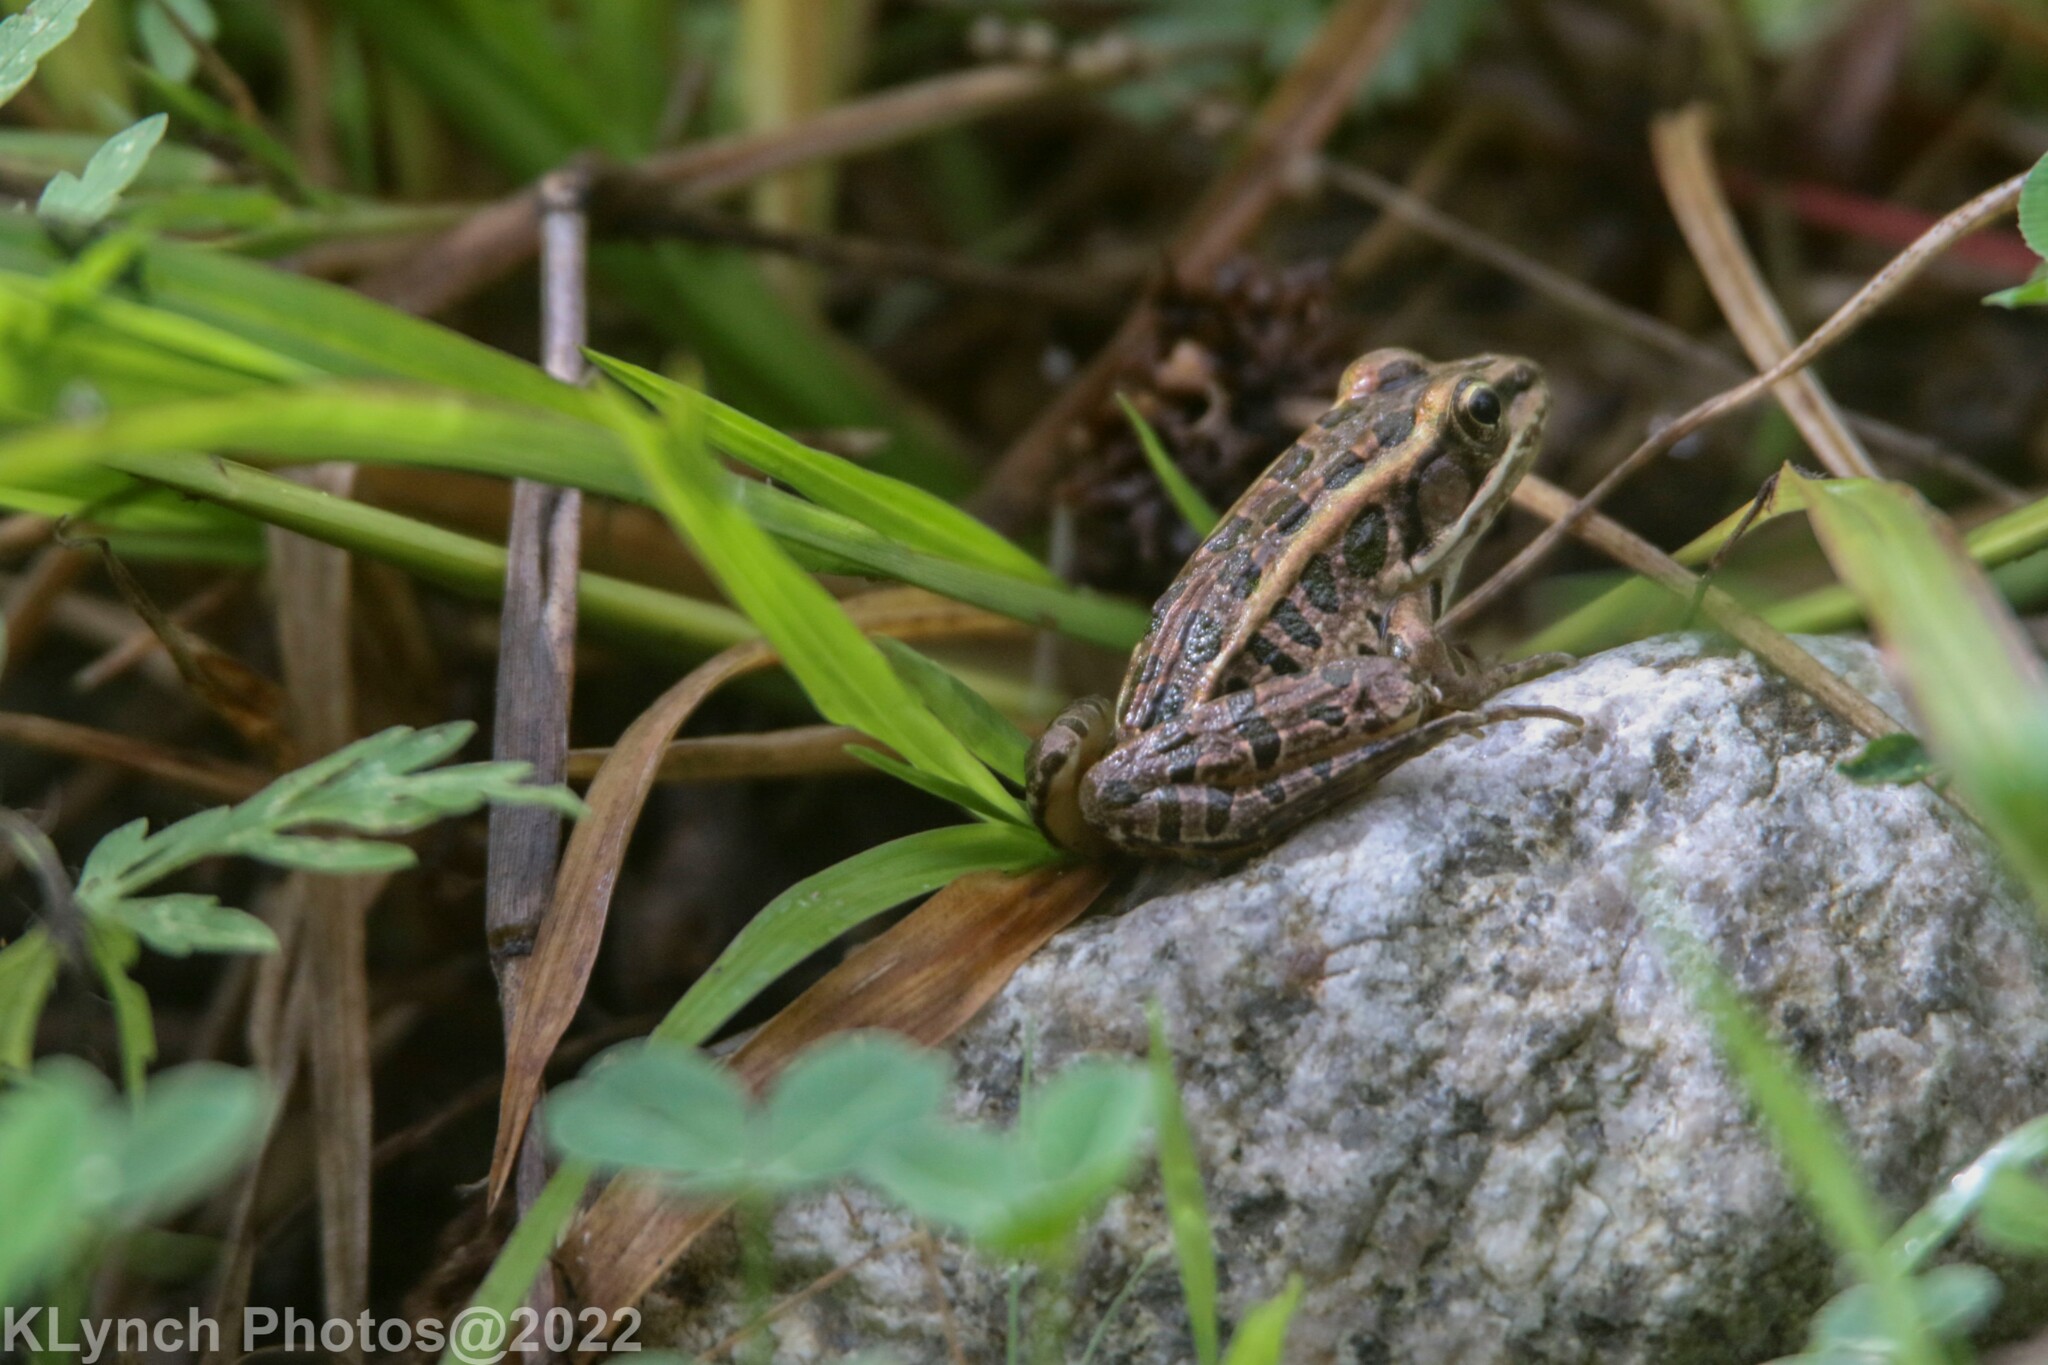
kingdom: Animalia
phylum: Chordata
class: Amphibia
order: Anura
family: Ranidae
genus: Lithobates
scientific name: Lithobates palustris
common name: Pickerel frog
